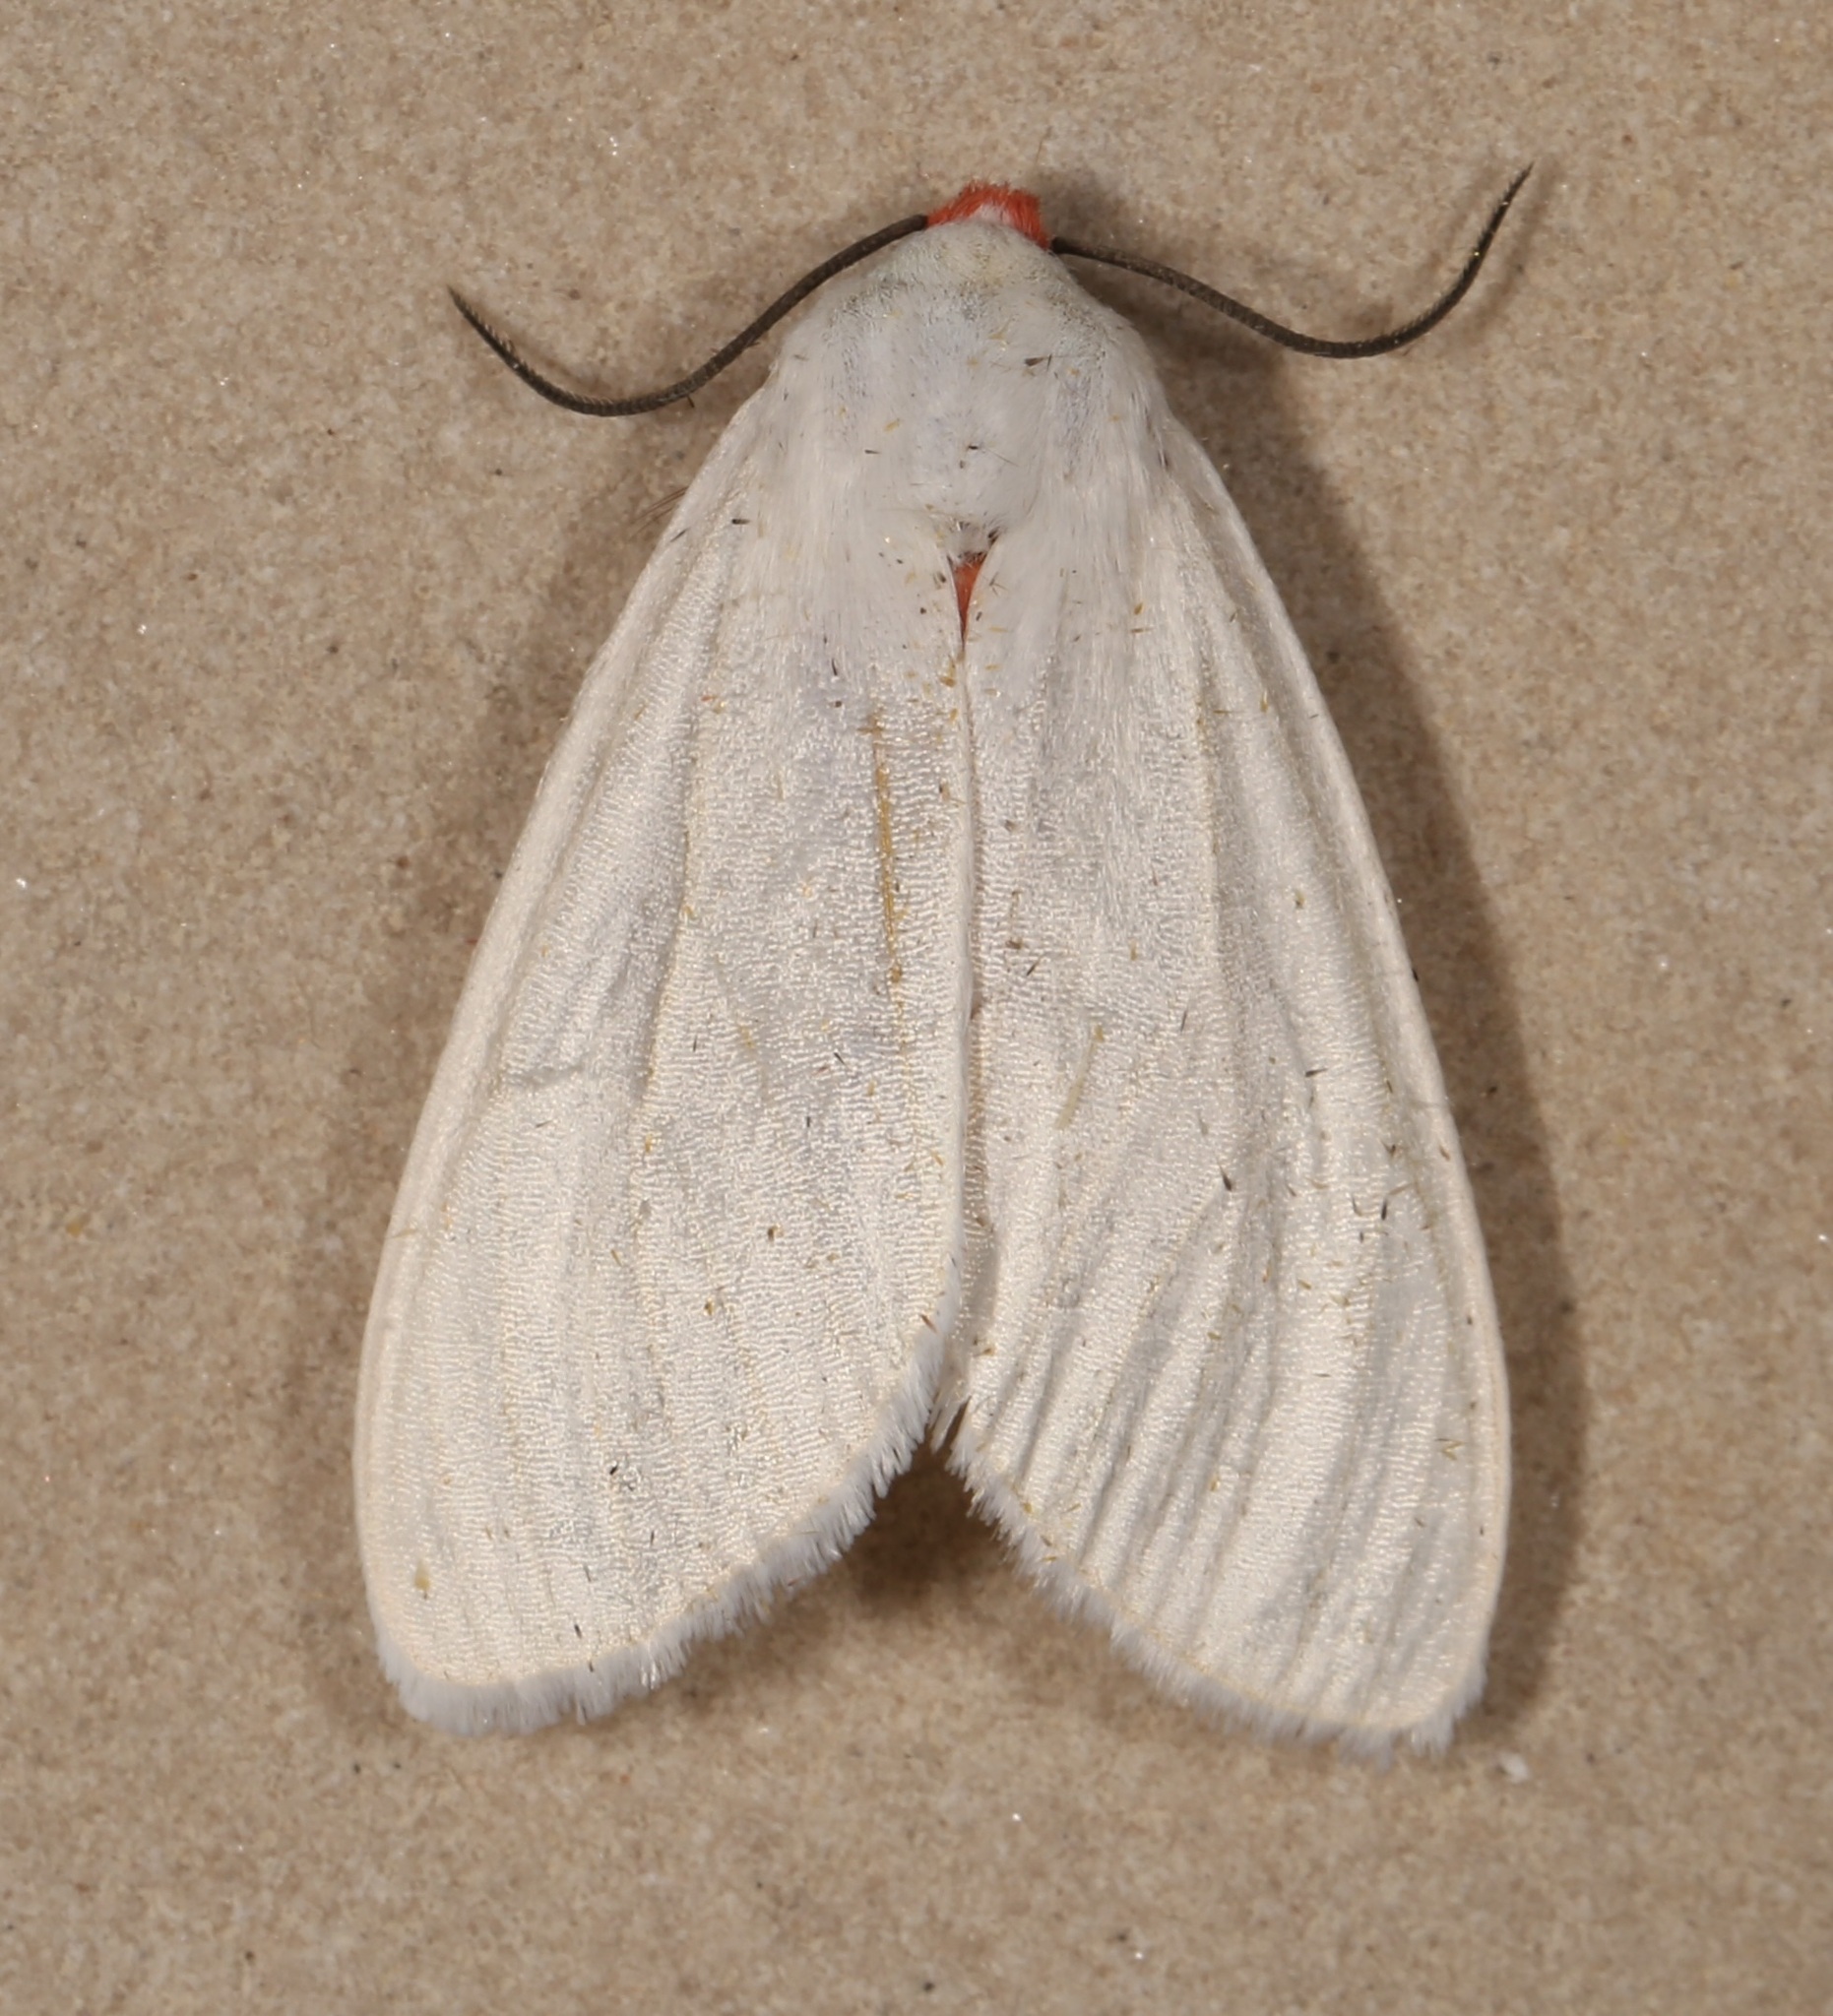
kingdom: Animalia
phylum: Arthropoda
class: Insecta
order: Lepidoptera
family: Erebidae
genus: Pygarctia
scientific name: Pygarctia roseicapitis
